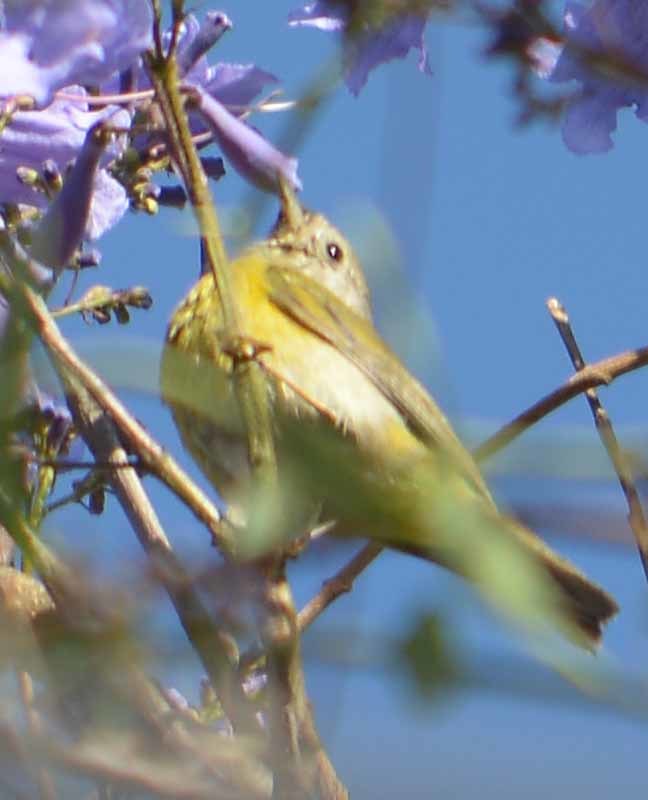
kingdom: Animalia
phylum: Chordata
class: Aves
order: Passeriformes
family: Parulidae
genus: Leiothlypis
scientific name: Leiothlypis ruficapilla
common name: Nashville warbler
